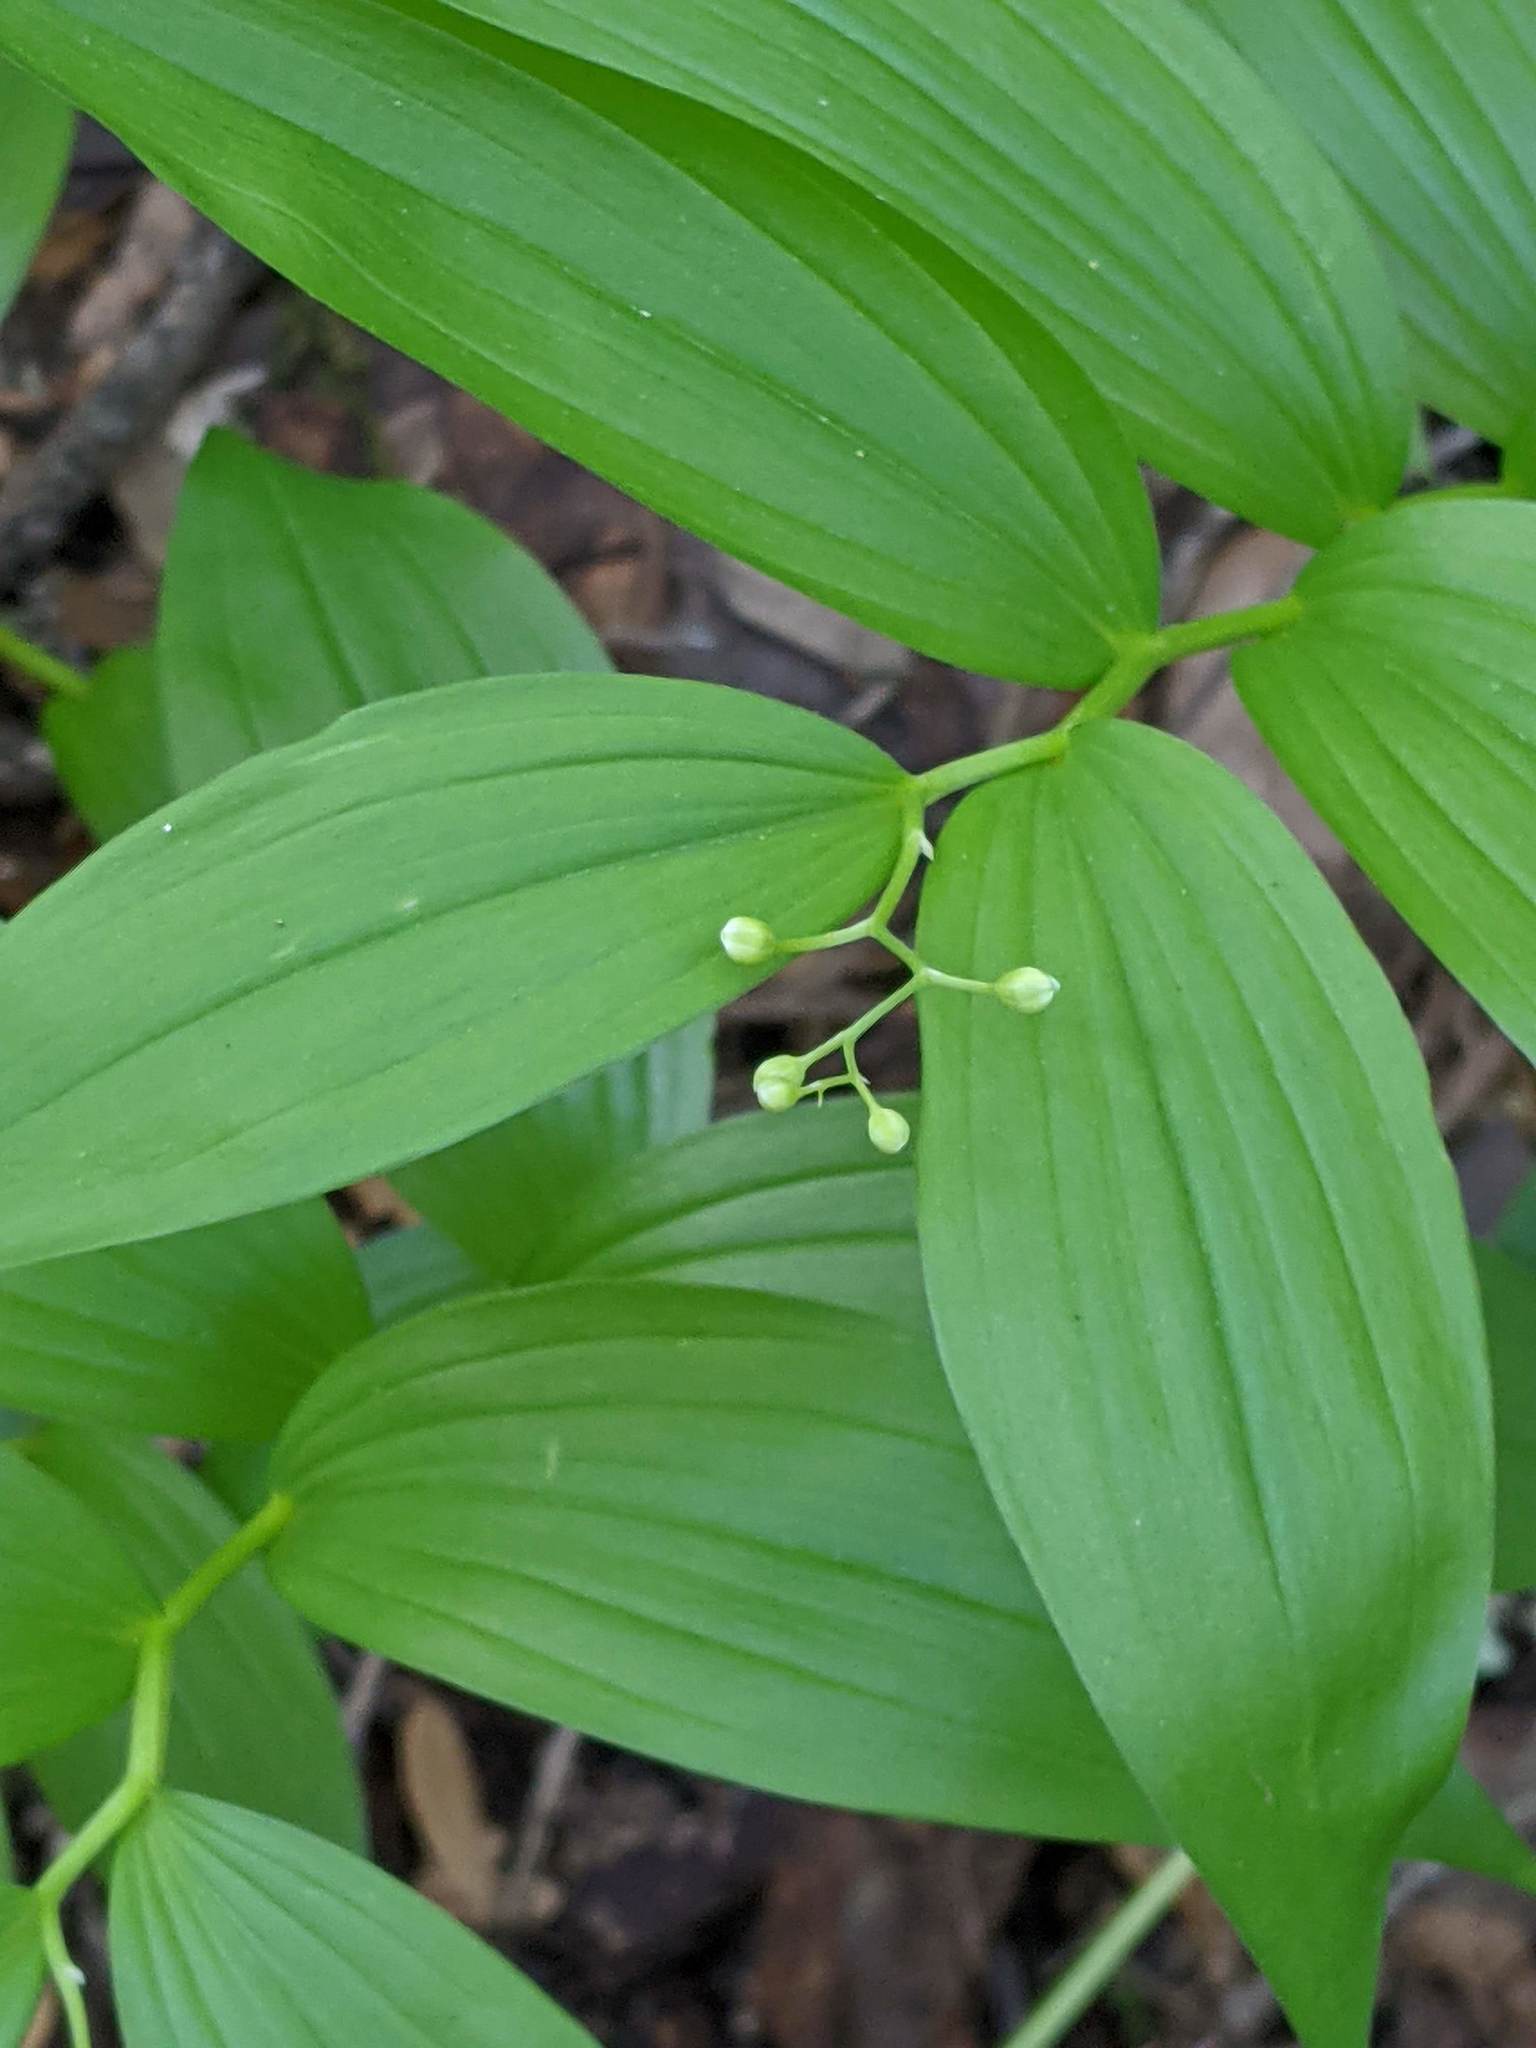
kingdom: Plantae
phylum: Tracheophyta
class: Liliopsida
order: Asparagales
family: Asparagaceae
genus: Maianthemum
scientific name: Maianthemum stellatum
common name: Little false solomon's seal
